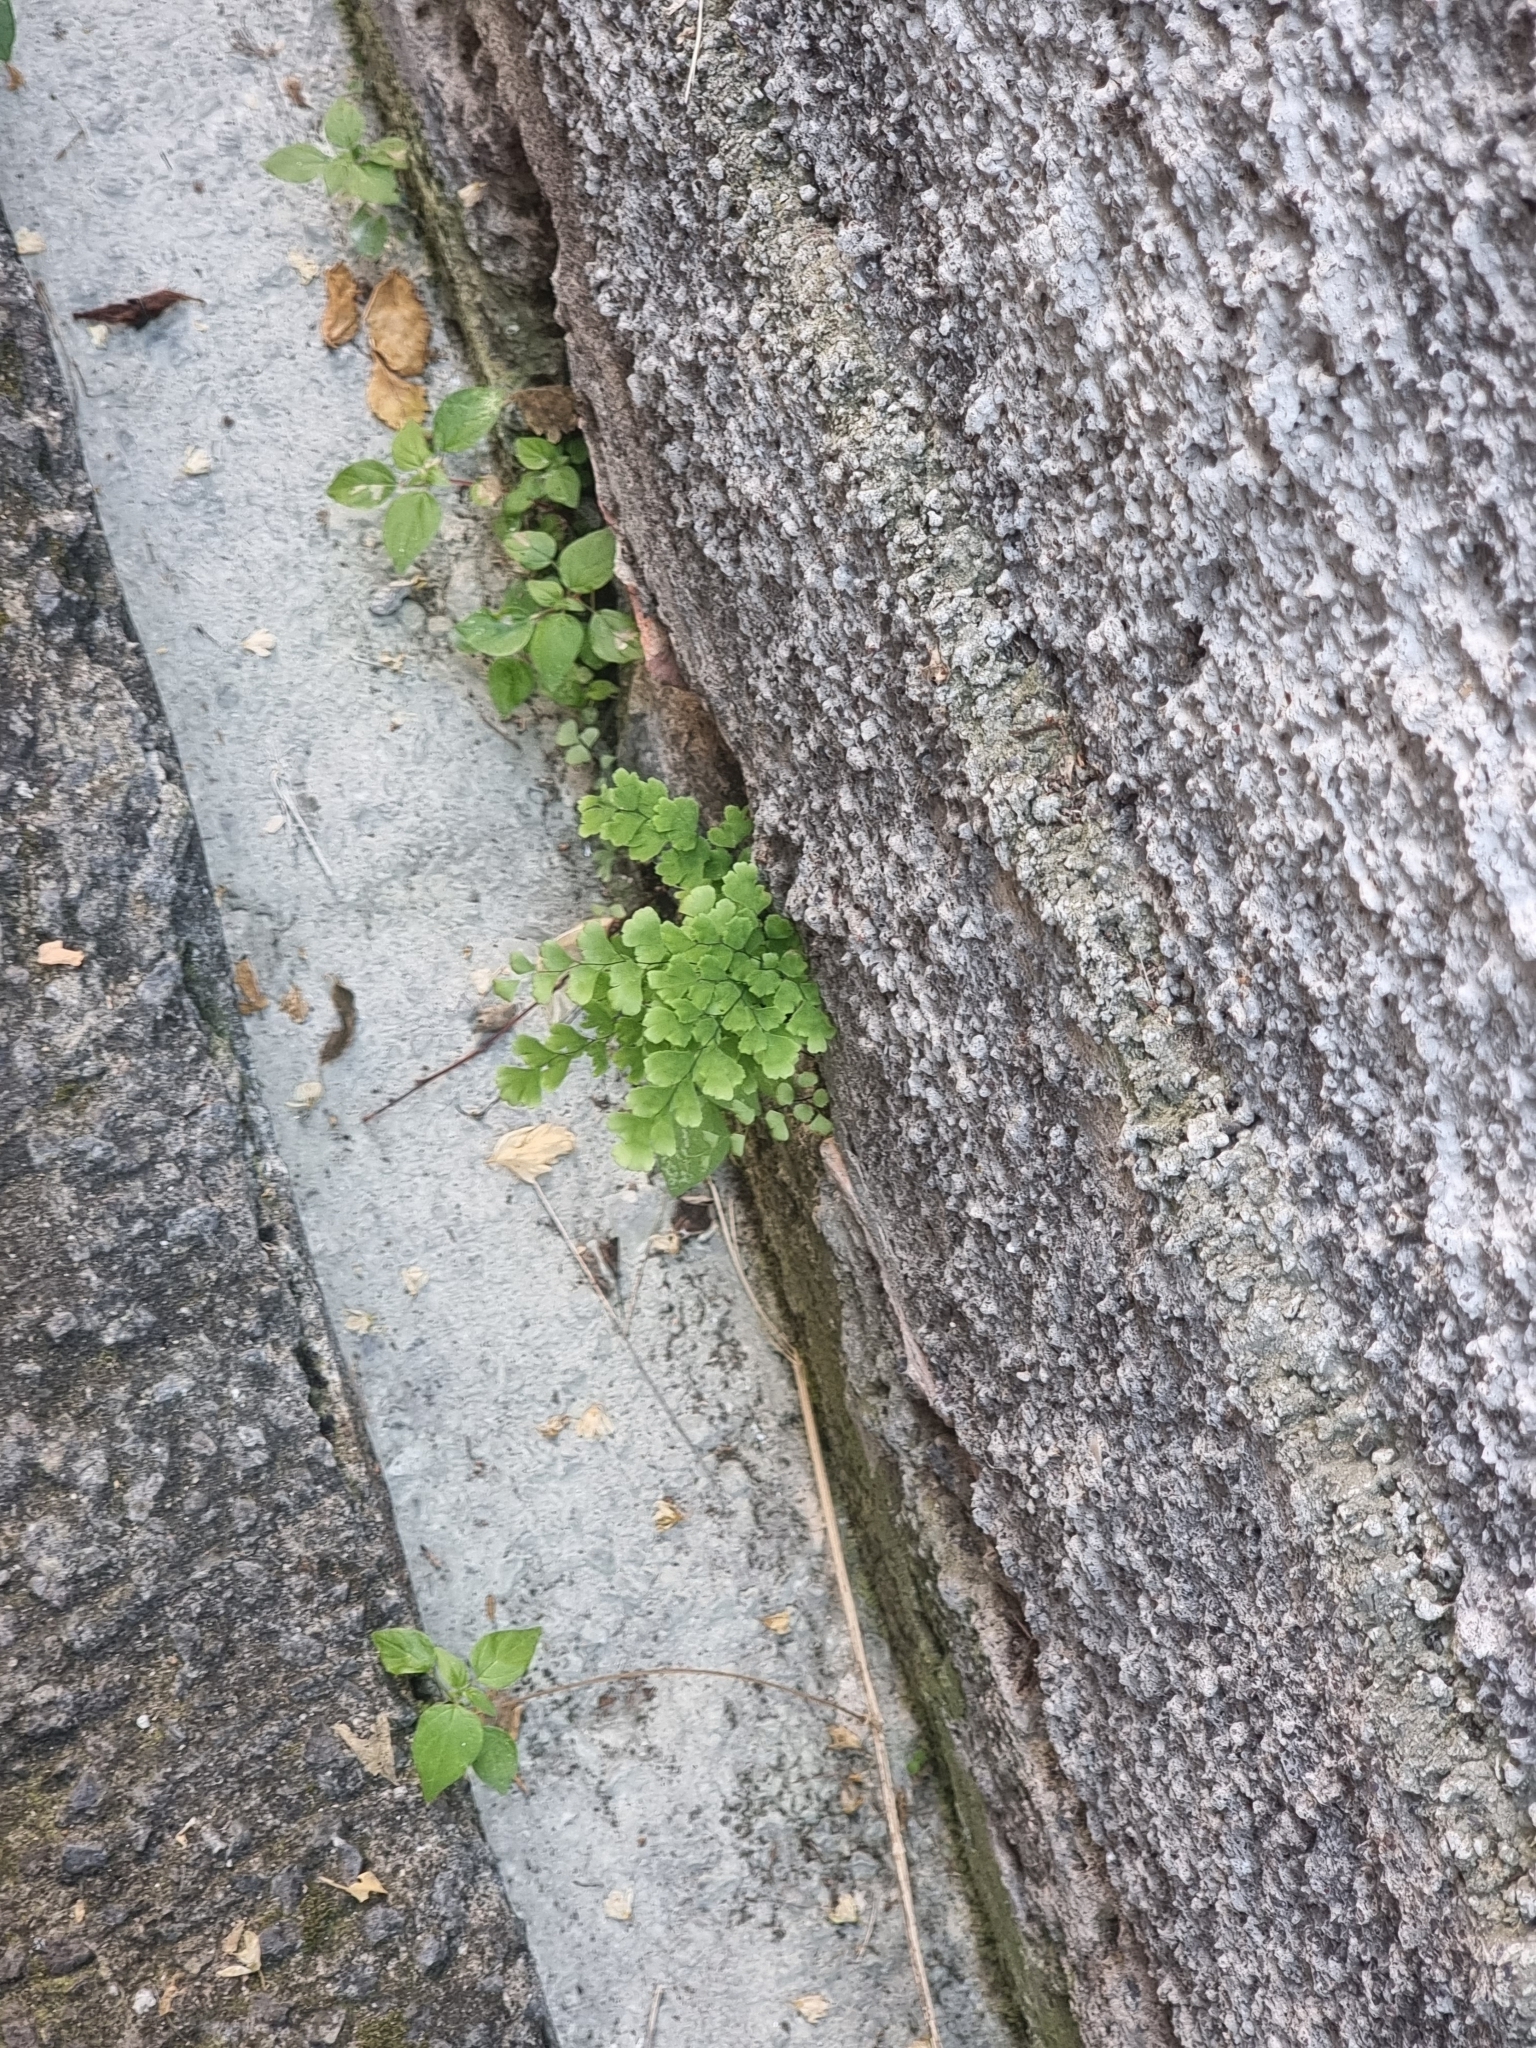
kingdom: Plantae
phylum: Tracheophyta
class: Polypodiopsida
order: Polypodiales
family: Pteridaceae
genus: Adiantum
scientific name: Adiantum capillus-veneris
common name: Maidenhair fern
